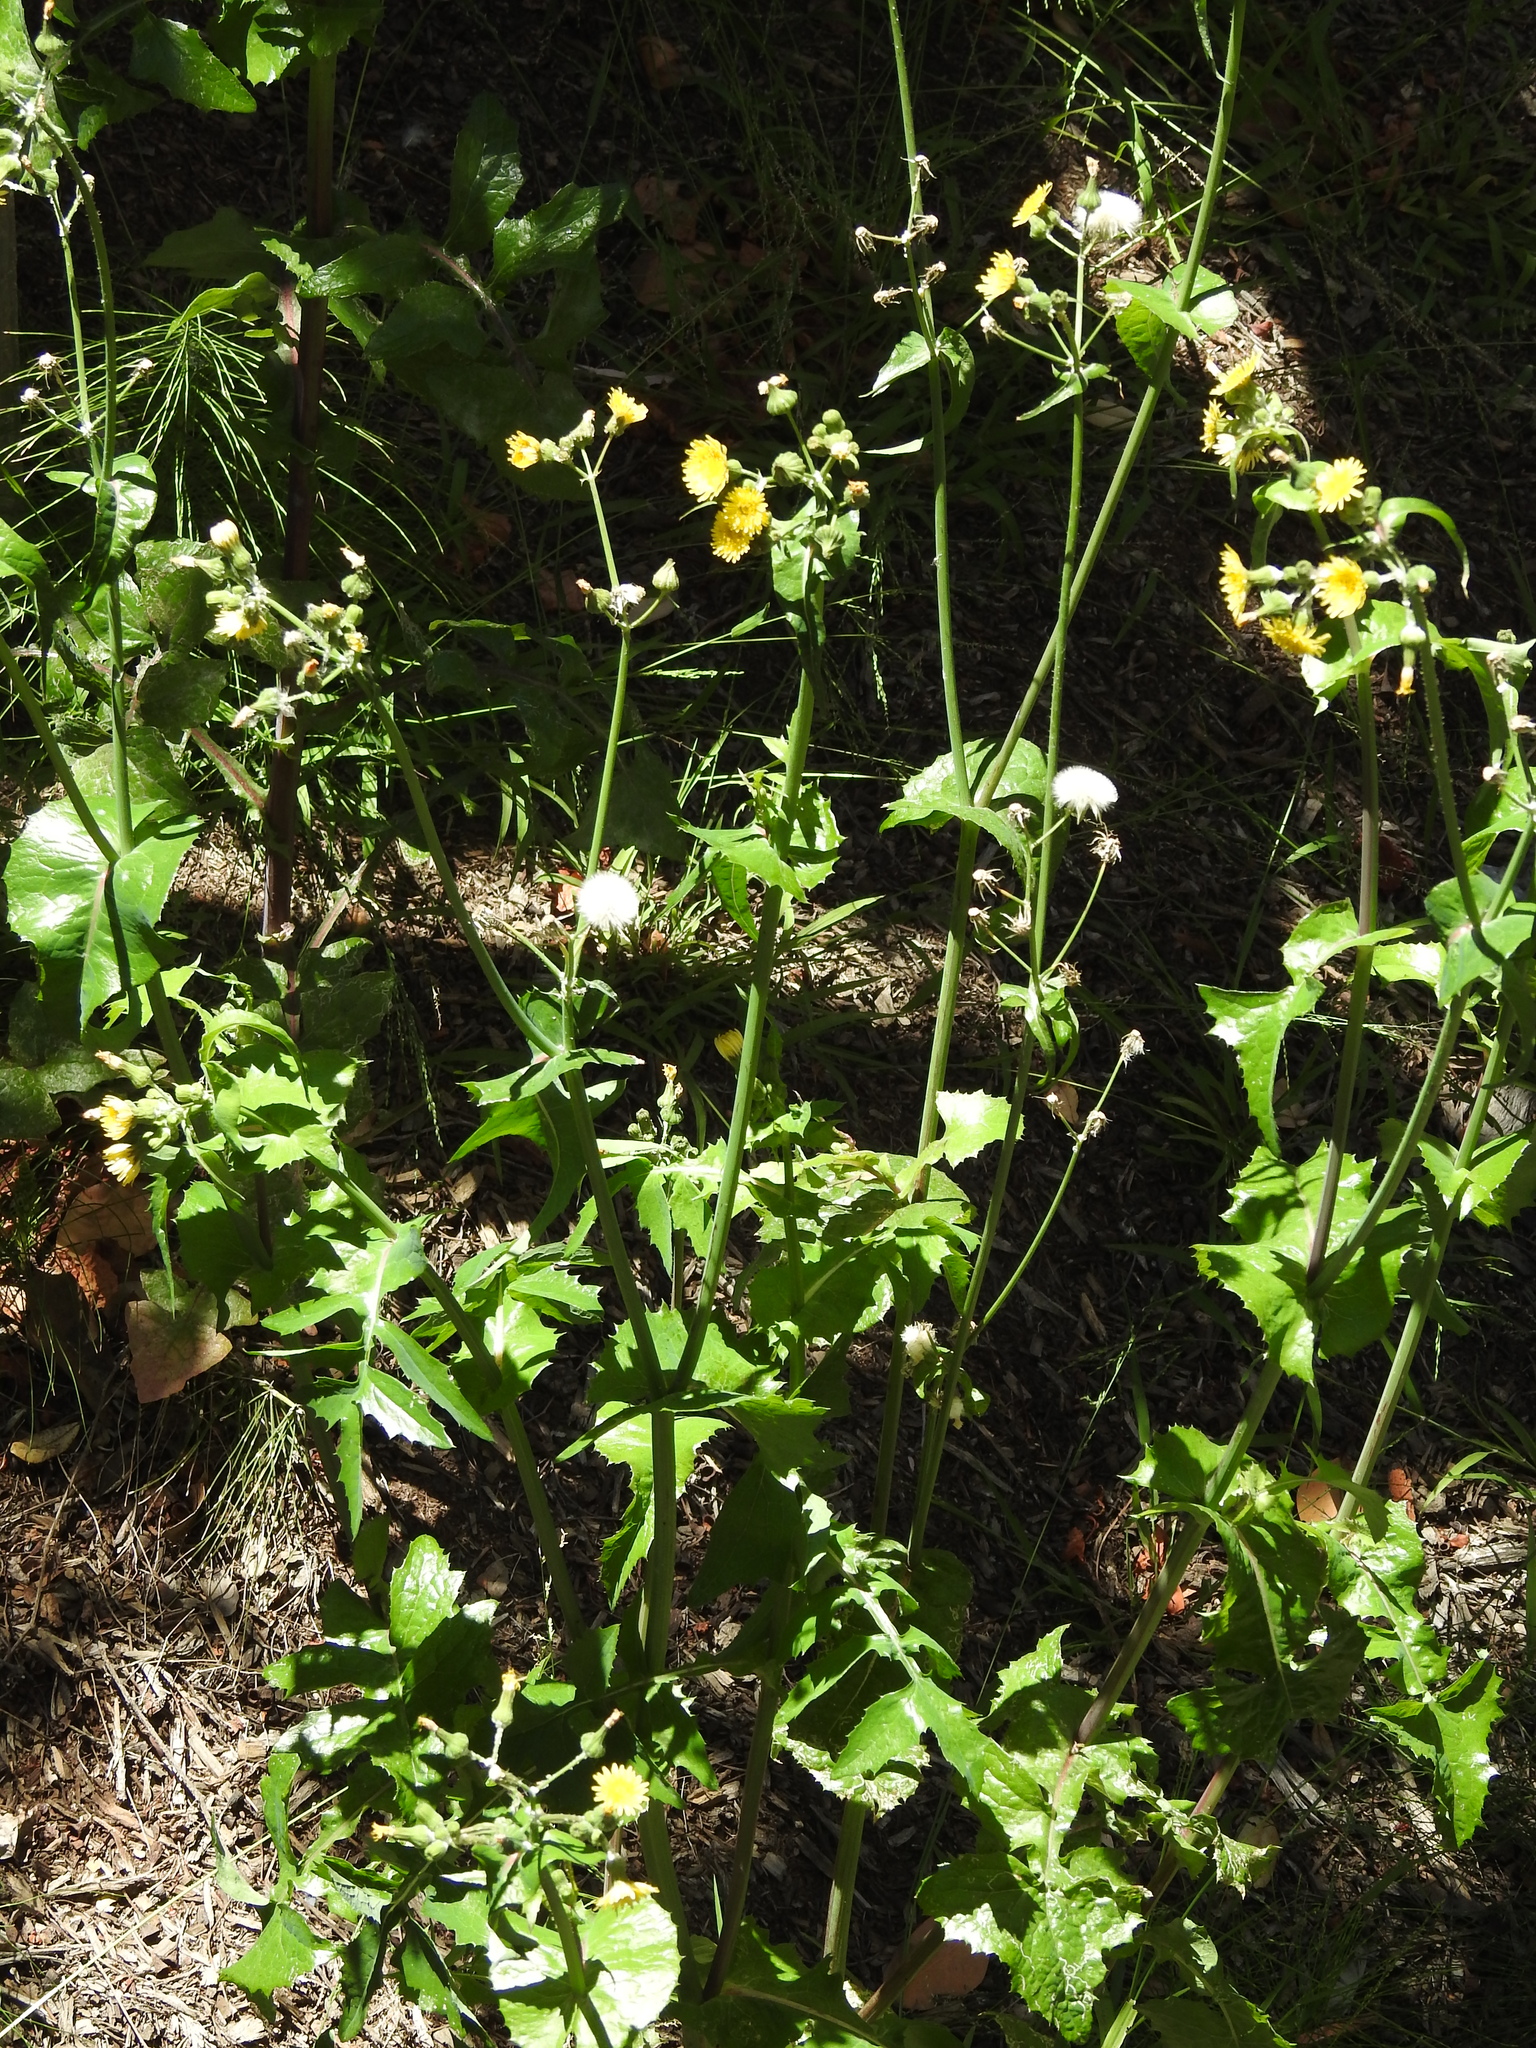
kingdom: Plantae
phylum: Tracheophyta
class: Magnoliopsida
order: Asterales
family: Asteraceae
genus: Sonchus
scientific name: Sonchus oleraceus
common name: Common sowthistle
